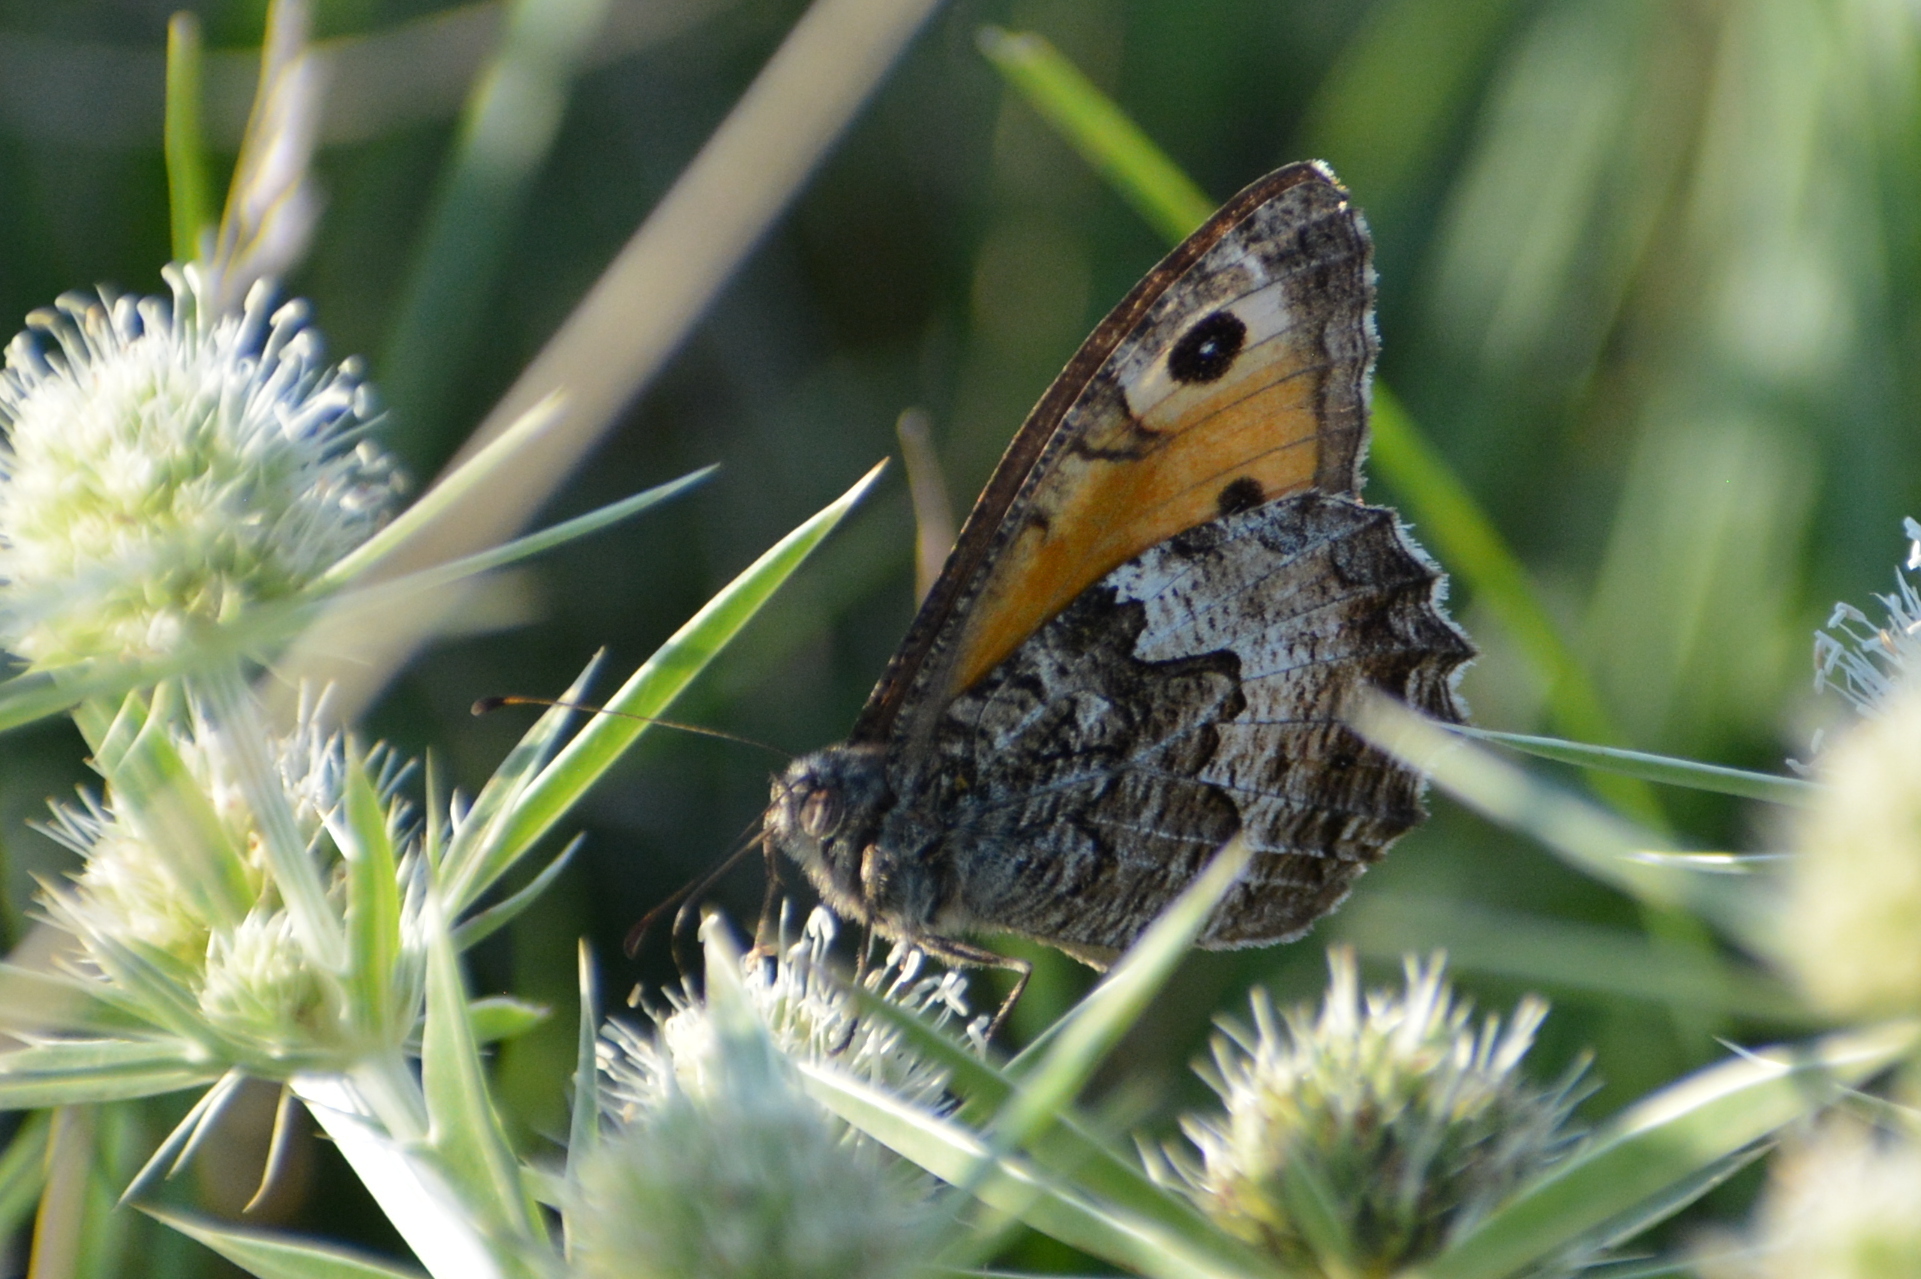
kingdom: Animalia
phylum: Arthropoda
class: Insecta
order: Lepidoptera
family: Nymphalidae
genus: Hipparchia
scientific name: Hipparchia semele
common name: Grayling
